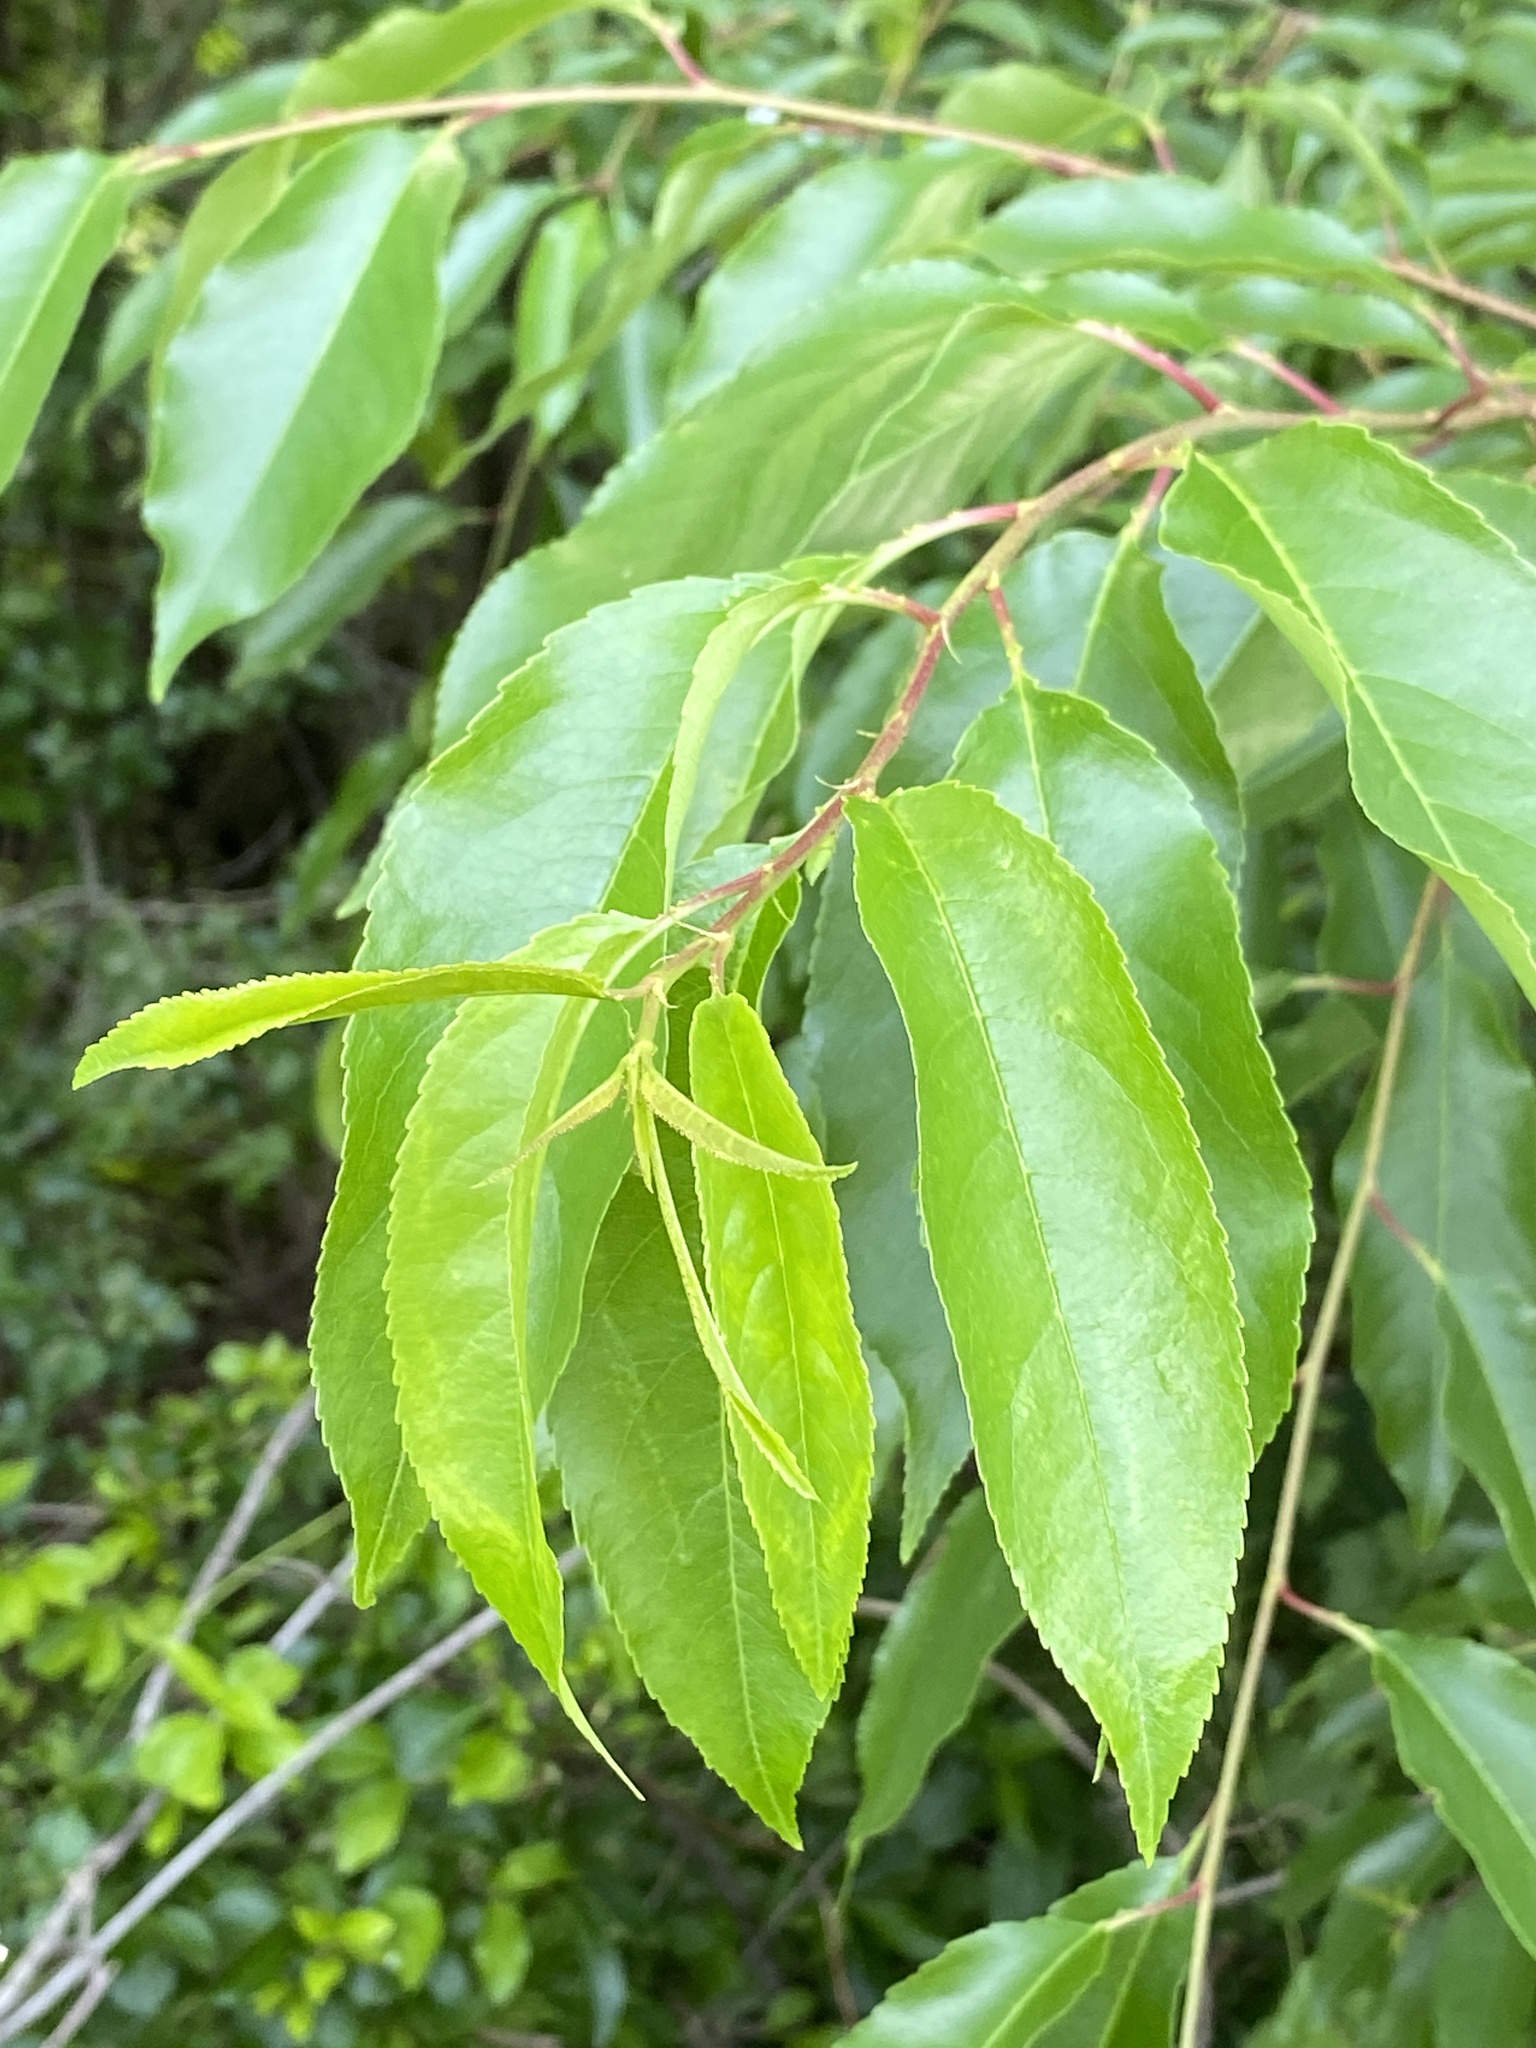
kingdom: Plantae
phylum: Tracheophyta
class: Magnoliopsida
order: Rosales
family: Rosaceae
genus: Prunus
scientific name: Prunus serotina
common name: Black cherry
